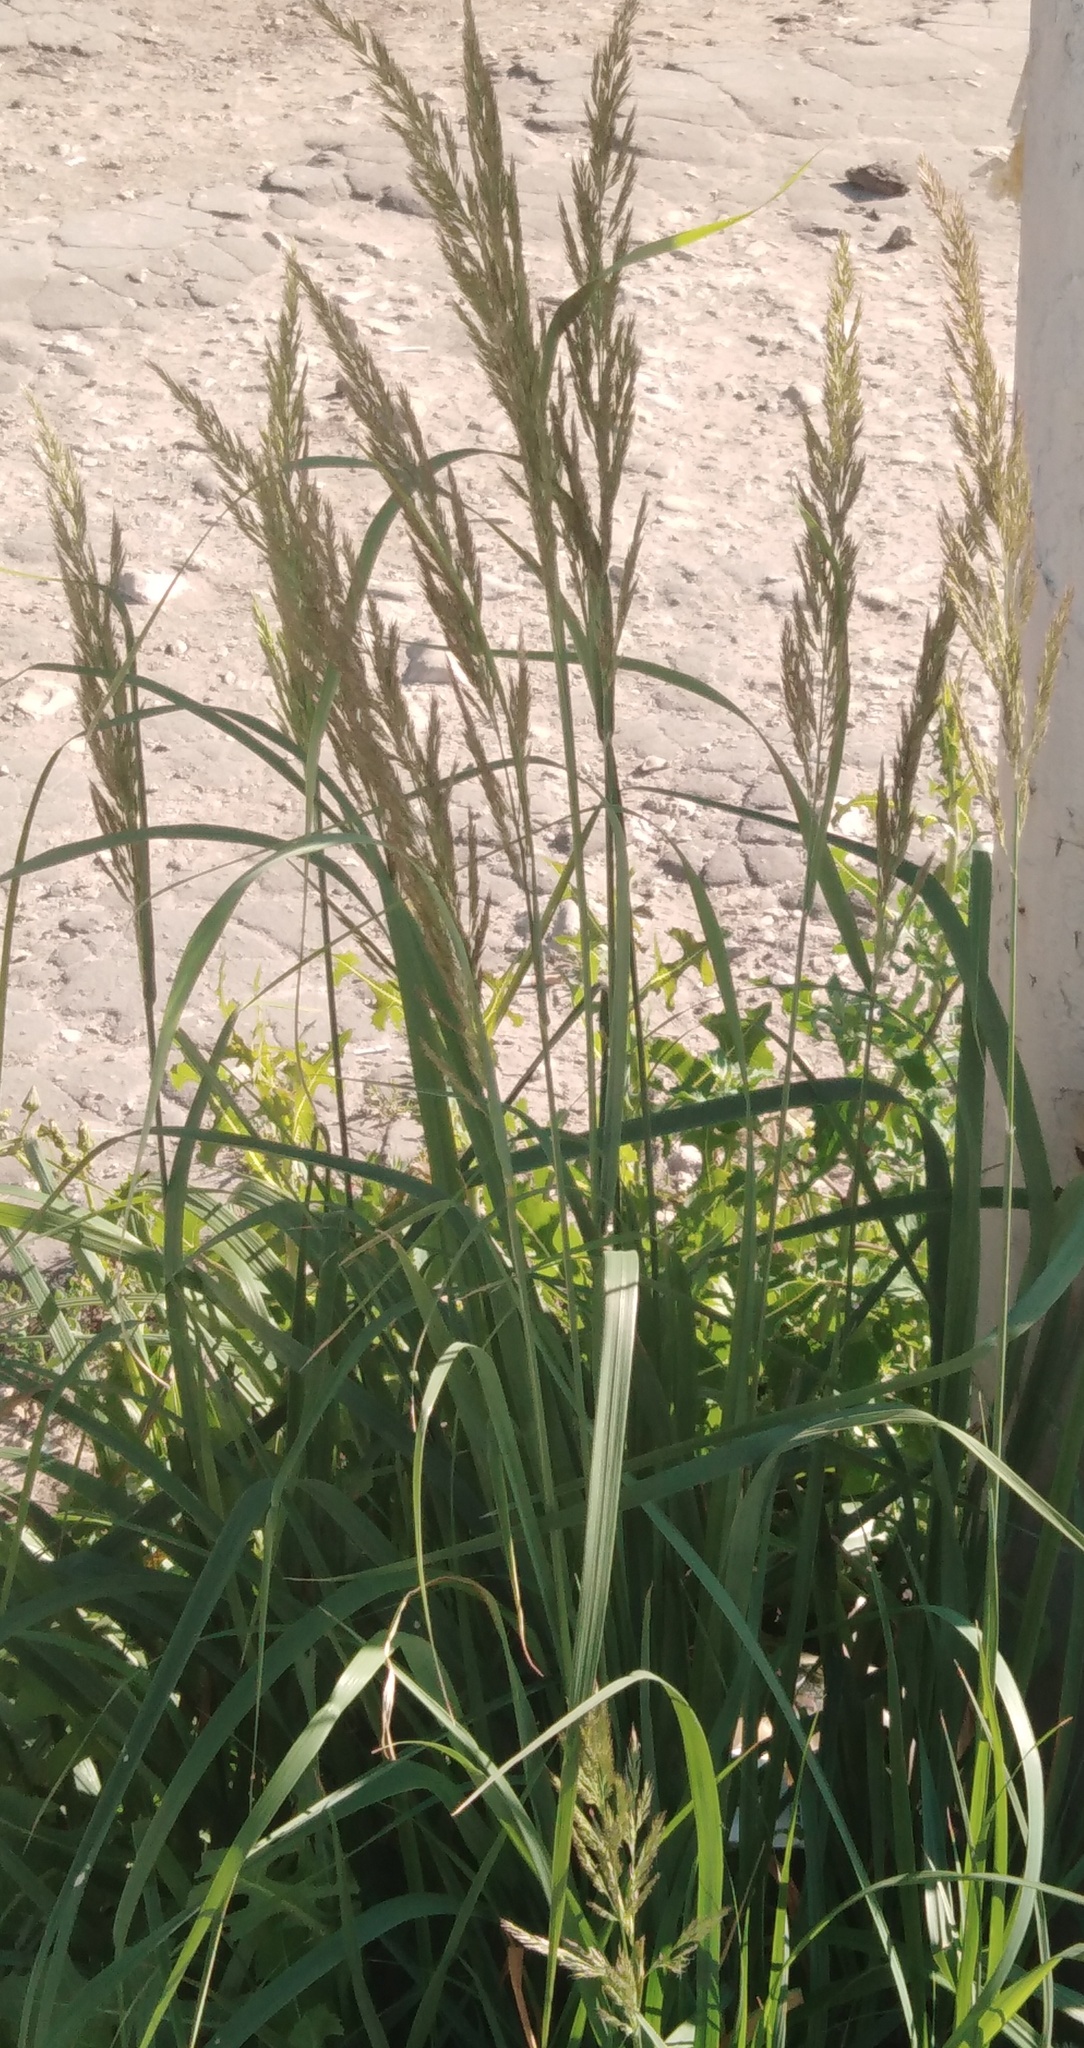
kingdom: Plantae
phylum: Tracheophyta
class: Liliopsida
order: Poales
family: Poaceae
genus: Calamagrostis
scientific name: Calamagrostis epigejos
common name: Wood small-reed
